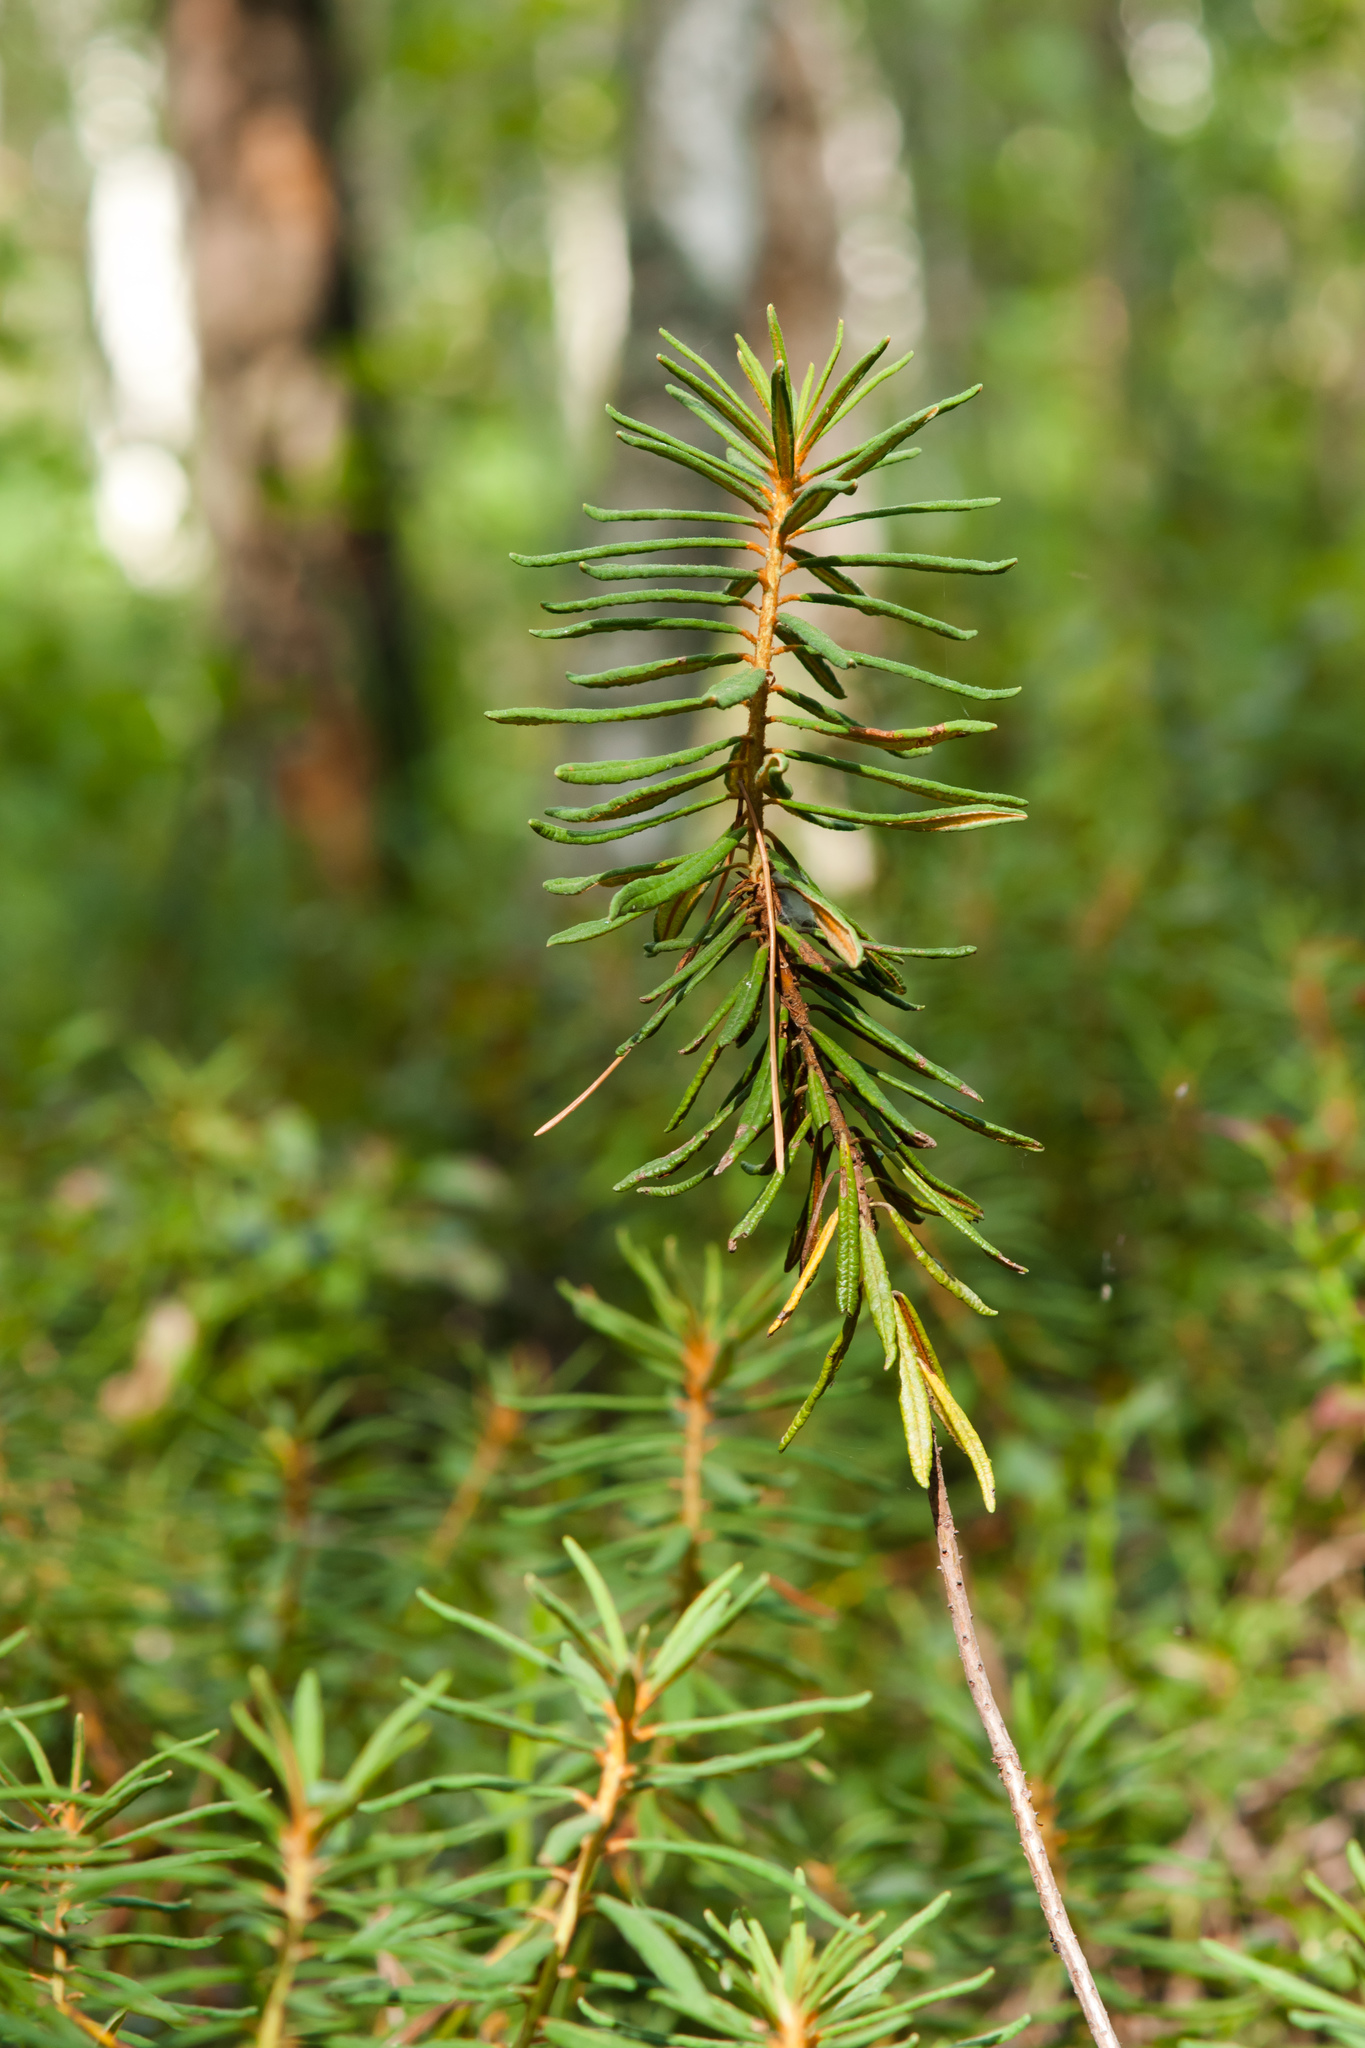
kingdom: Plantae
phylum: Tracheophyta
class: Magnoliopsida
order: Ericales
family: Ericaceae
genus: Rhododendron
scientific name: Rhododendron tomentosum
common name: Marsh labrador tea
